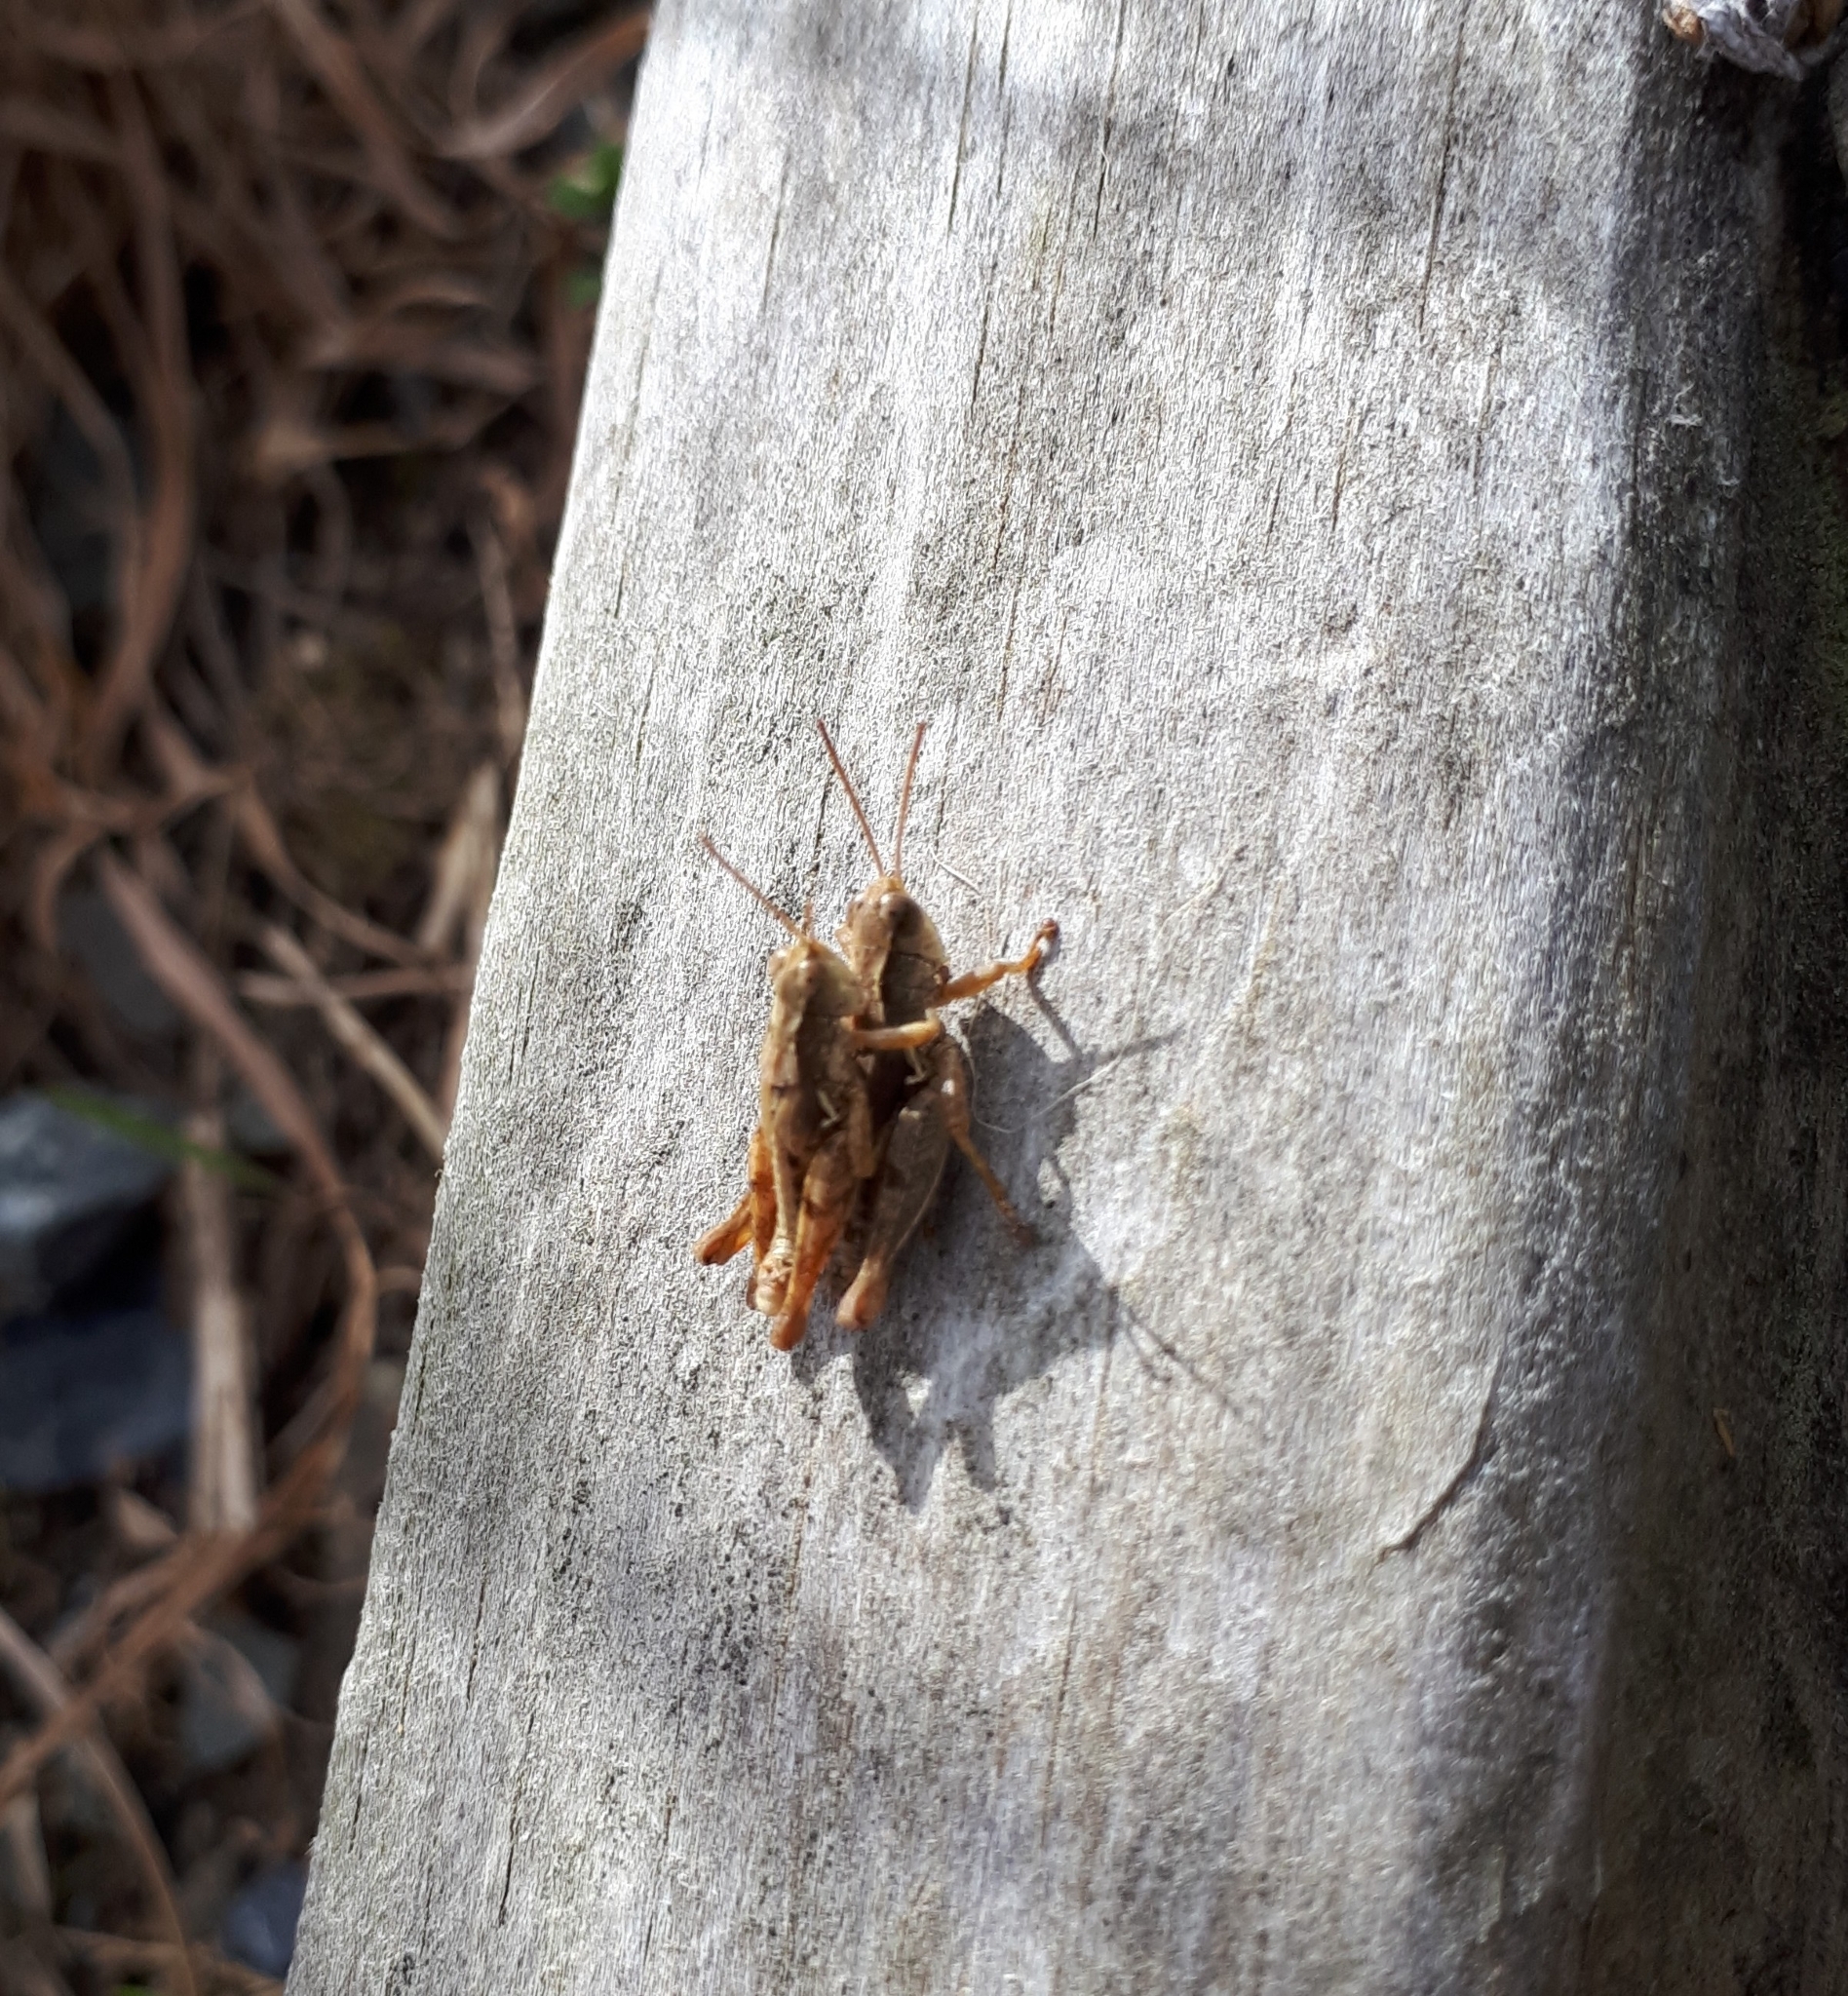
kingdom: Animalia
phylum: Arthropoda
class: Insecta
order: Orthoptera
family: Acrididae
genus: Phaulacridium
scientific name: Phaulacridium marginale
